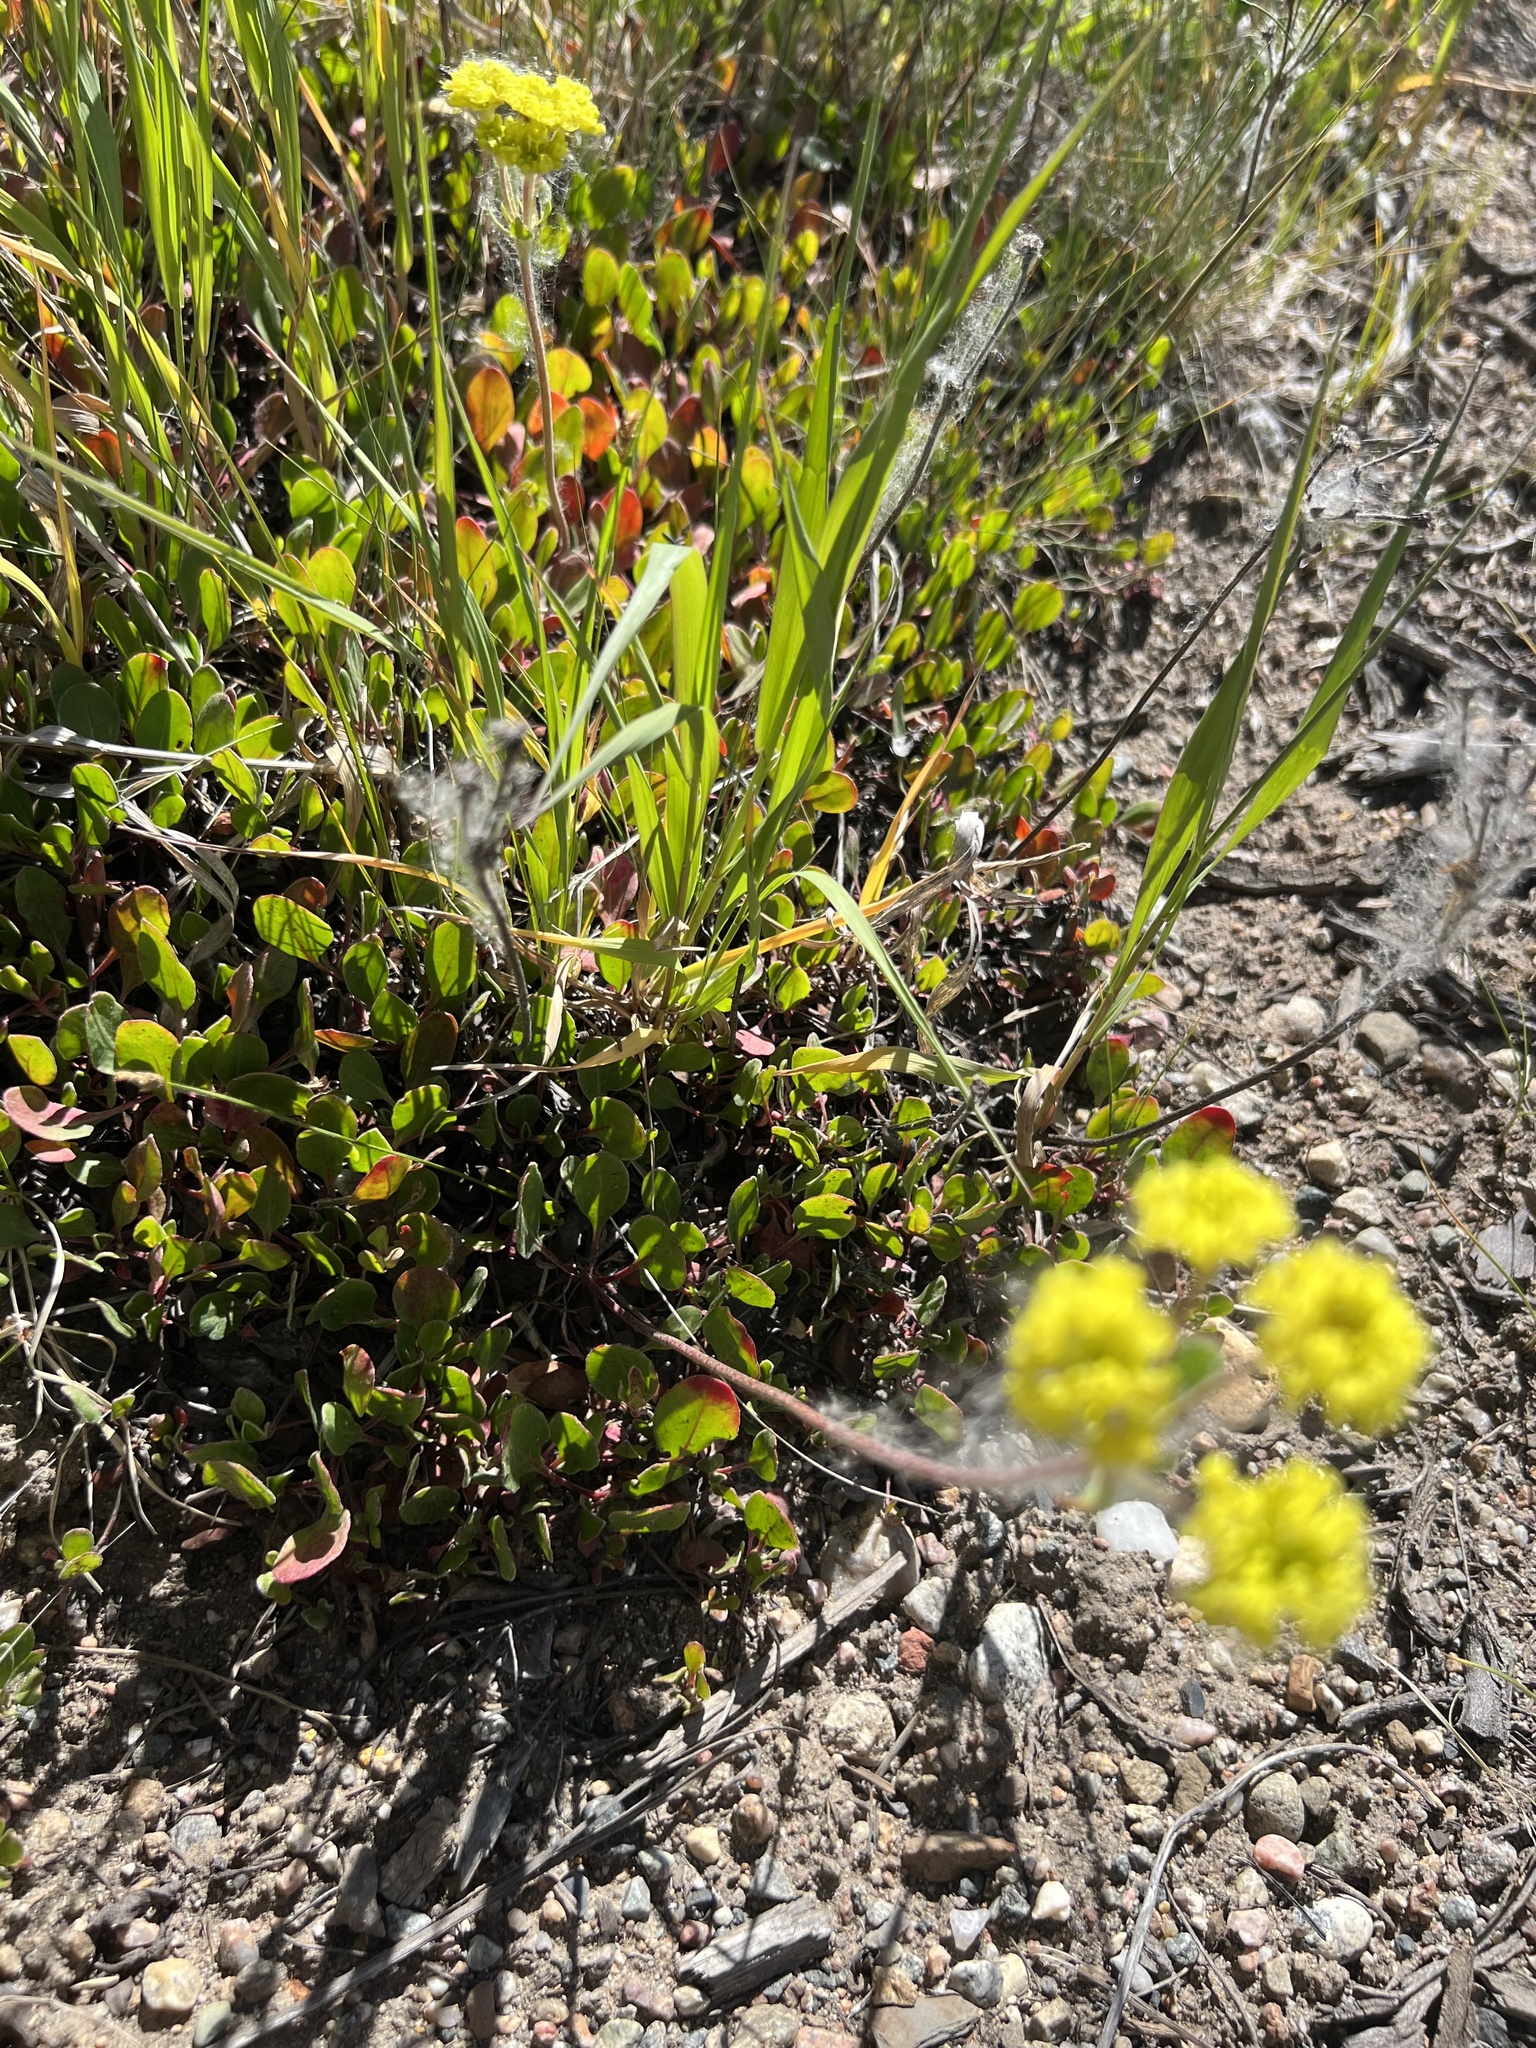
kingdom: Plantae
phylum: Tracheophyta
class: Magnoliopsida
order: Caryophyllales
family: Polygonaceae
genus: Eriogonum
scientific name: Eriogonum umbellatum
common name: Sulfur-buckwheat
